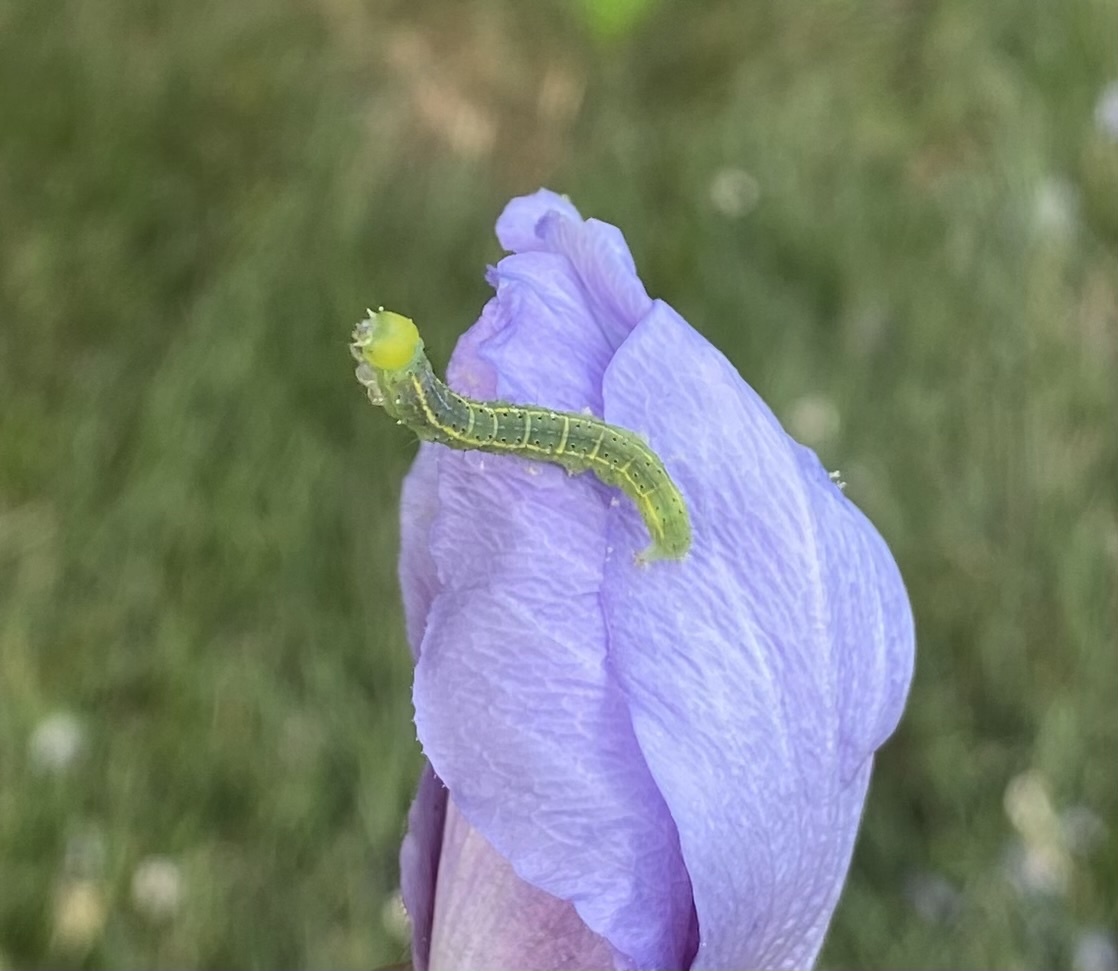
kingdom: Animalia
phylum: Arthropoda
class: Insecta
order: Lepidoptera
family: Erebidae
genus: Rusicada
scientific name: Rusicada privata
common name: Hibiscus leaf caterpillar moth
